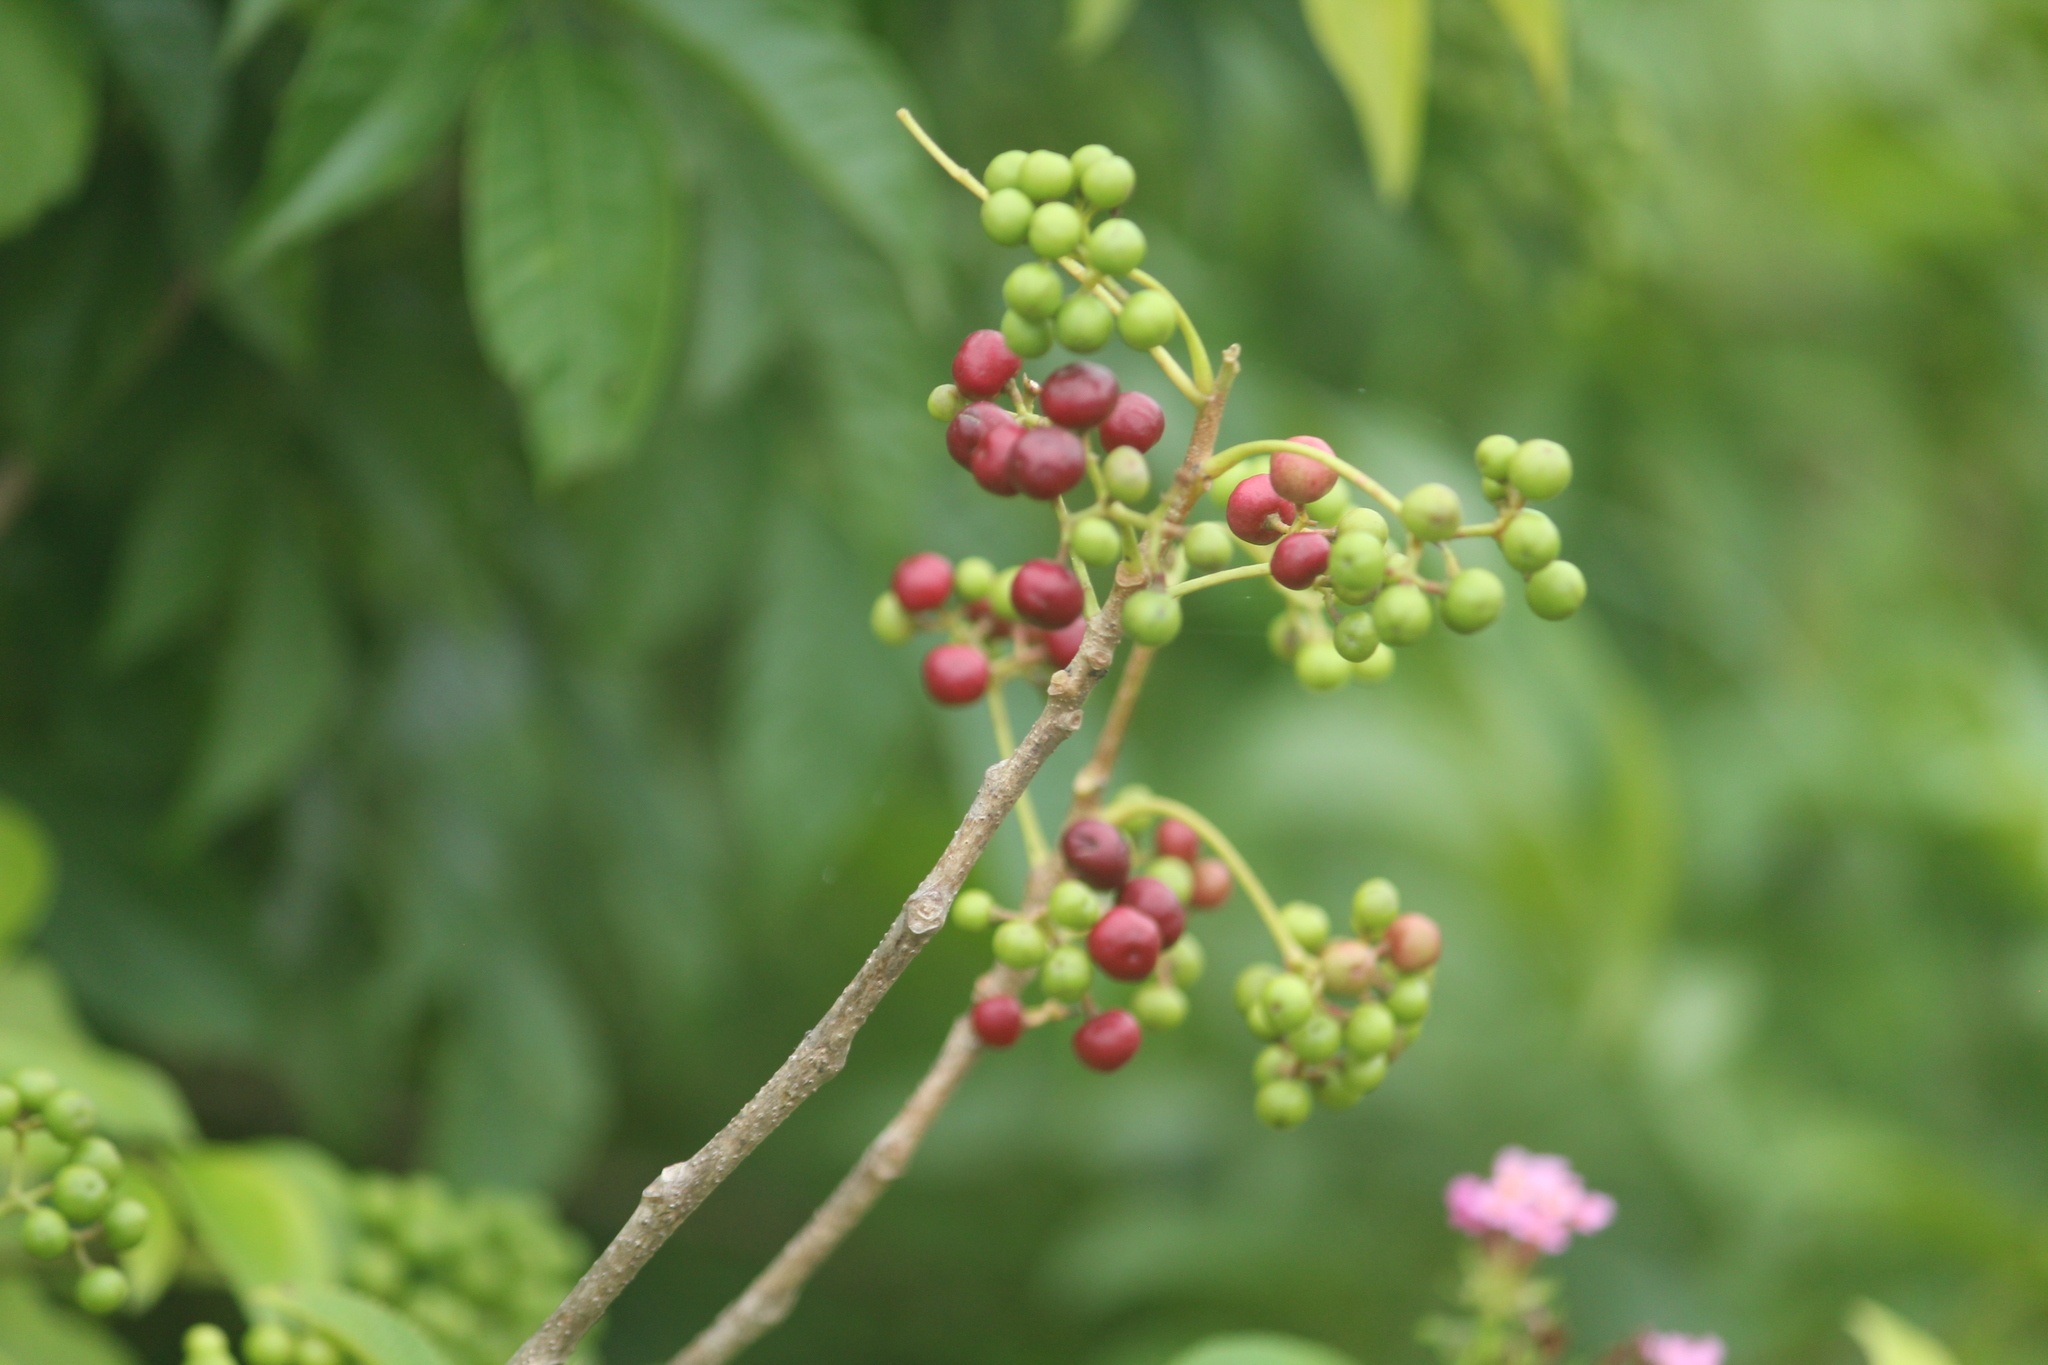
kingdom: Plantae
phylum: Tracheophyta
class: Magnoliopsida
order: Sapindales
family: Meliaceae
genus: Cipadessa
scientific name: Cipadessa baccifera
